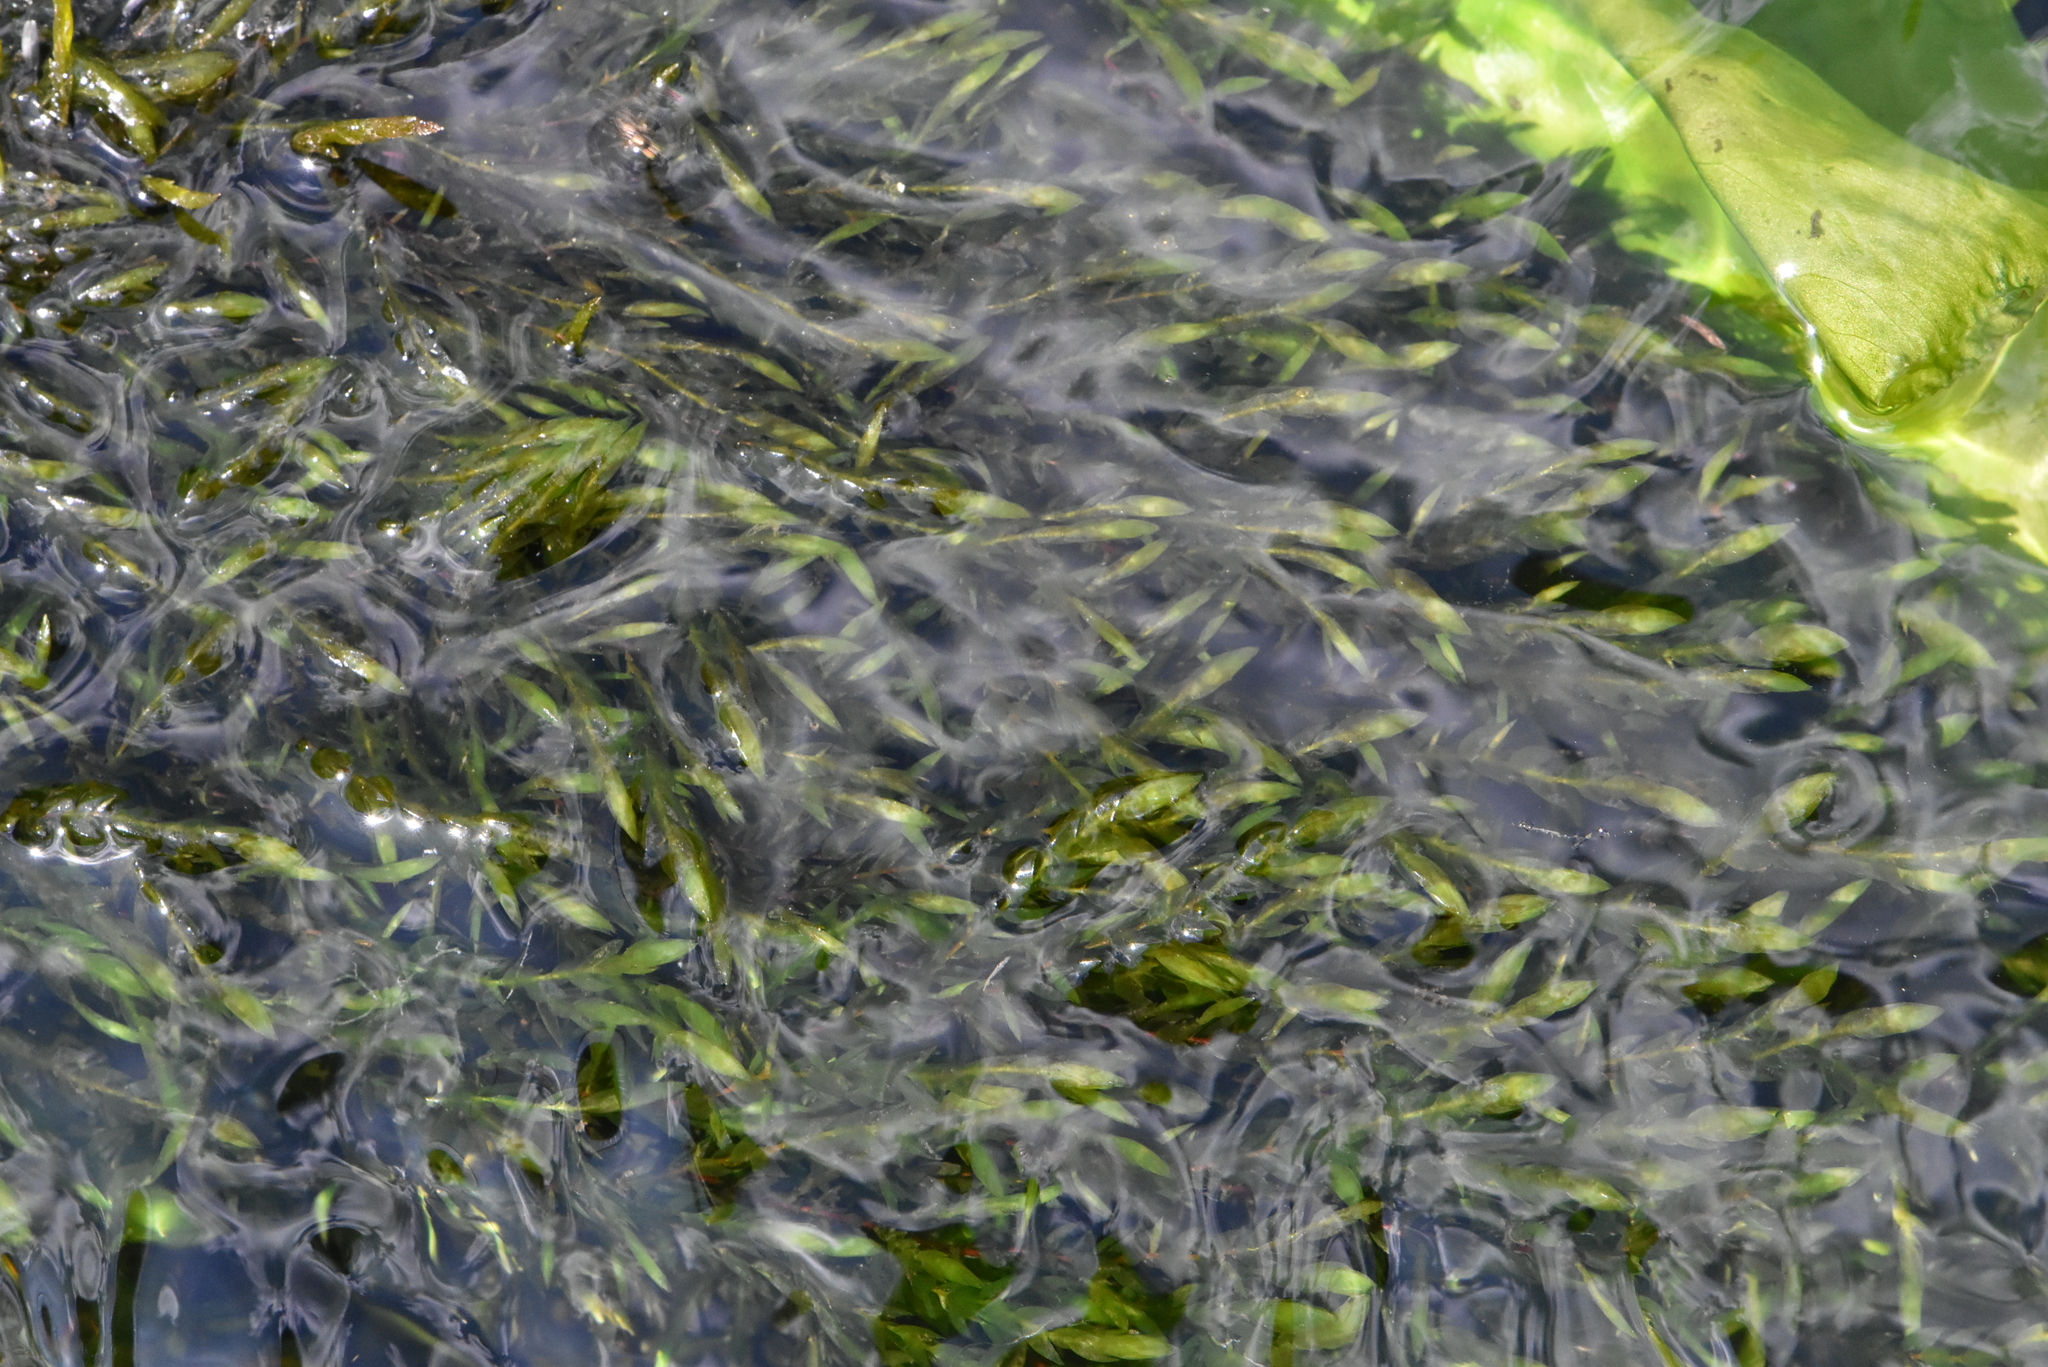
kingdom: Plantae
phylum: Bryophyta
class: Bryopsida
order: Hypnales
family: Fontinalaceae
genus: Fontinalis
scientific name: Fontinalis antipyretica
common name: Greater water-moss
